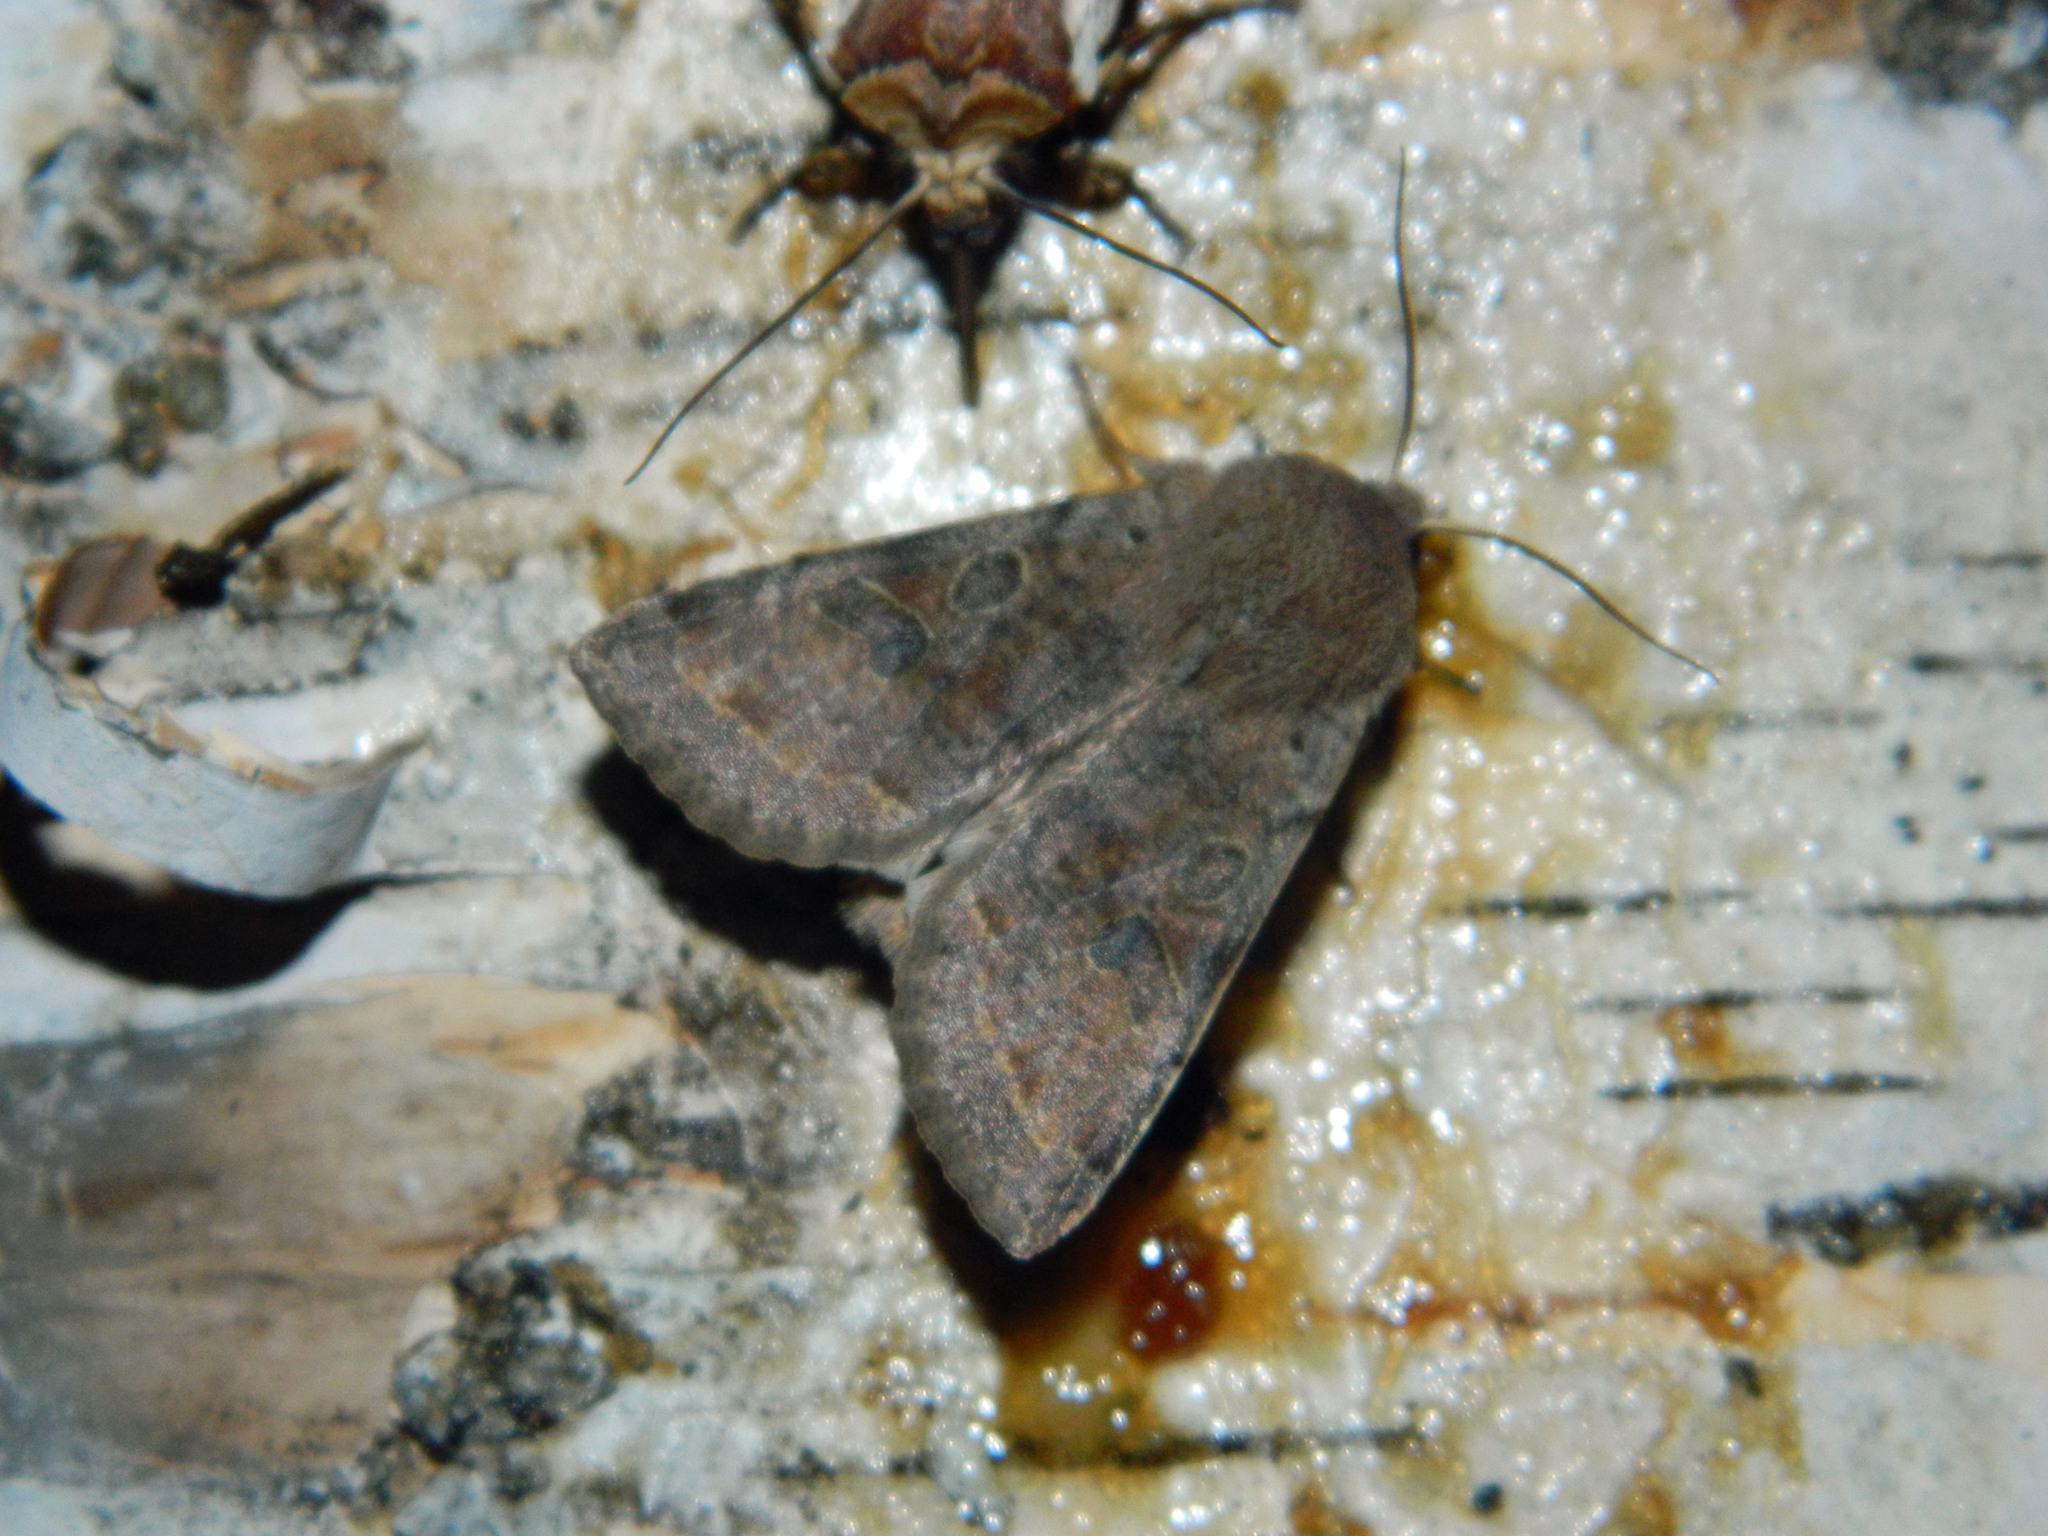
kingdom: Animalia
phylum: Arthropoda
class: Insecta
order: Lepidoptera
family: Noctuidae
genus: Orthosia
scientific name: Orthosia hibisci
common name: Green fruitworm
